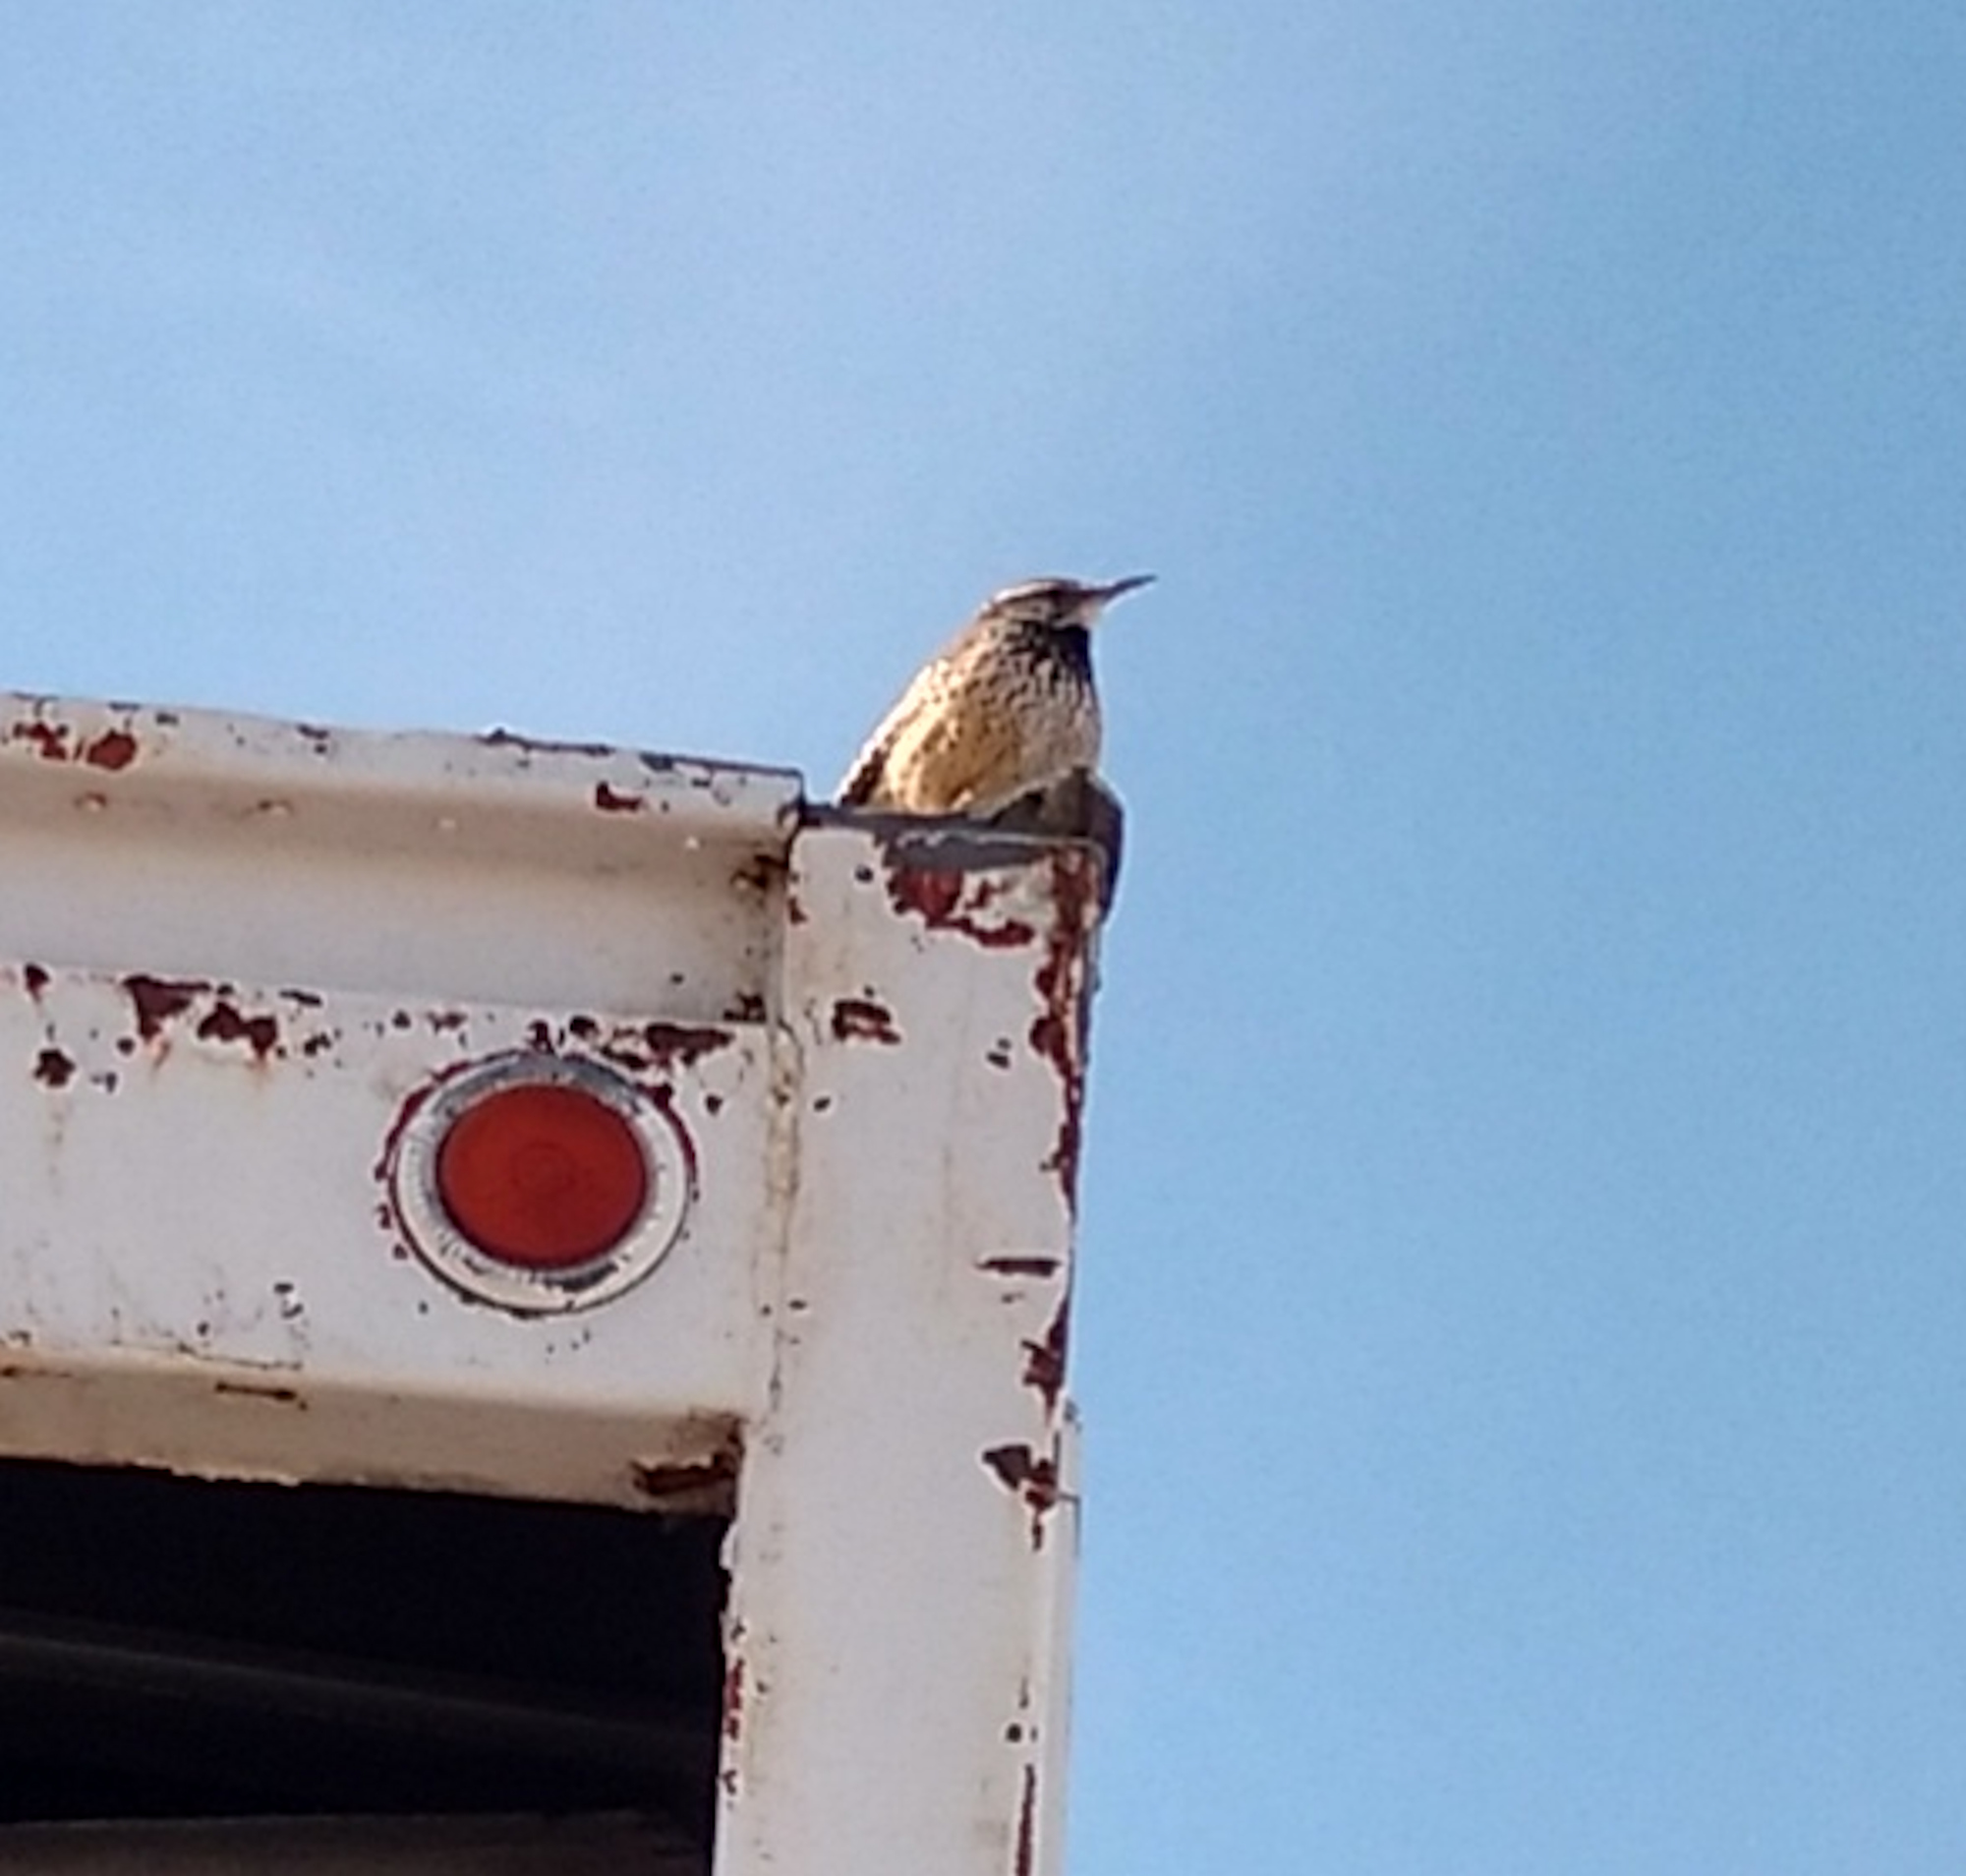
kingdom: Animalia
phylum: Chordata
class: Aves
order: Passeriformes
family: Troglodytidae
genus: Campylorhynchus
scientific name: Campylorhynchus brunneicapillus
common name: Cactus wren
